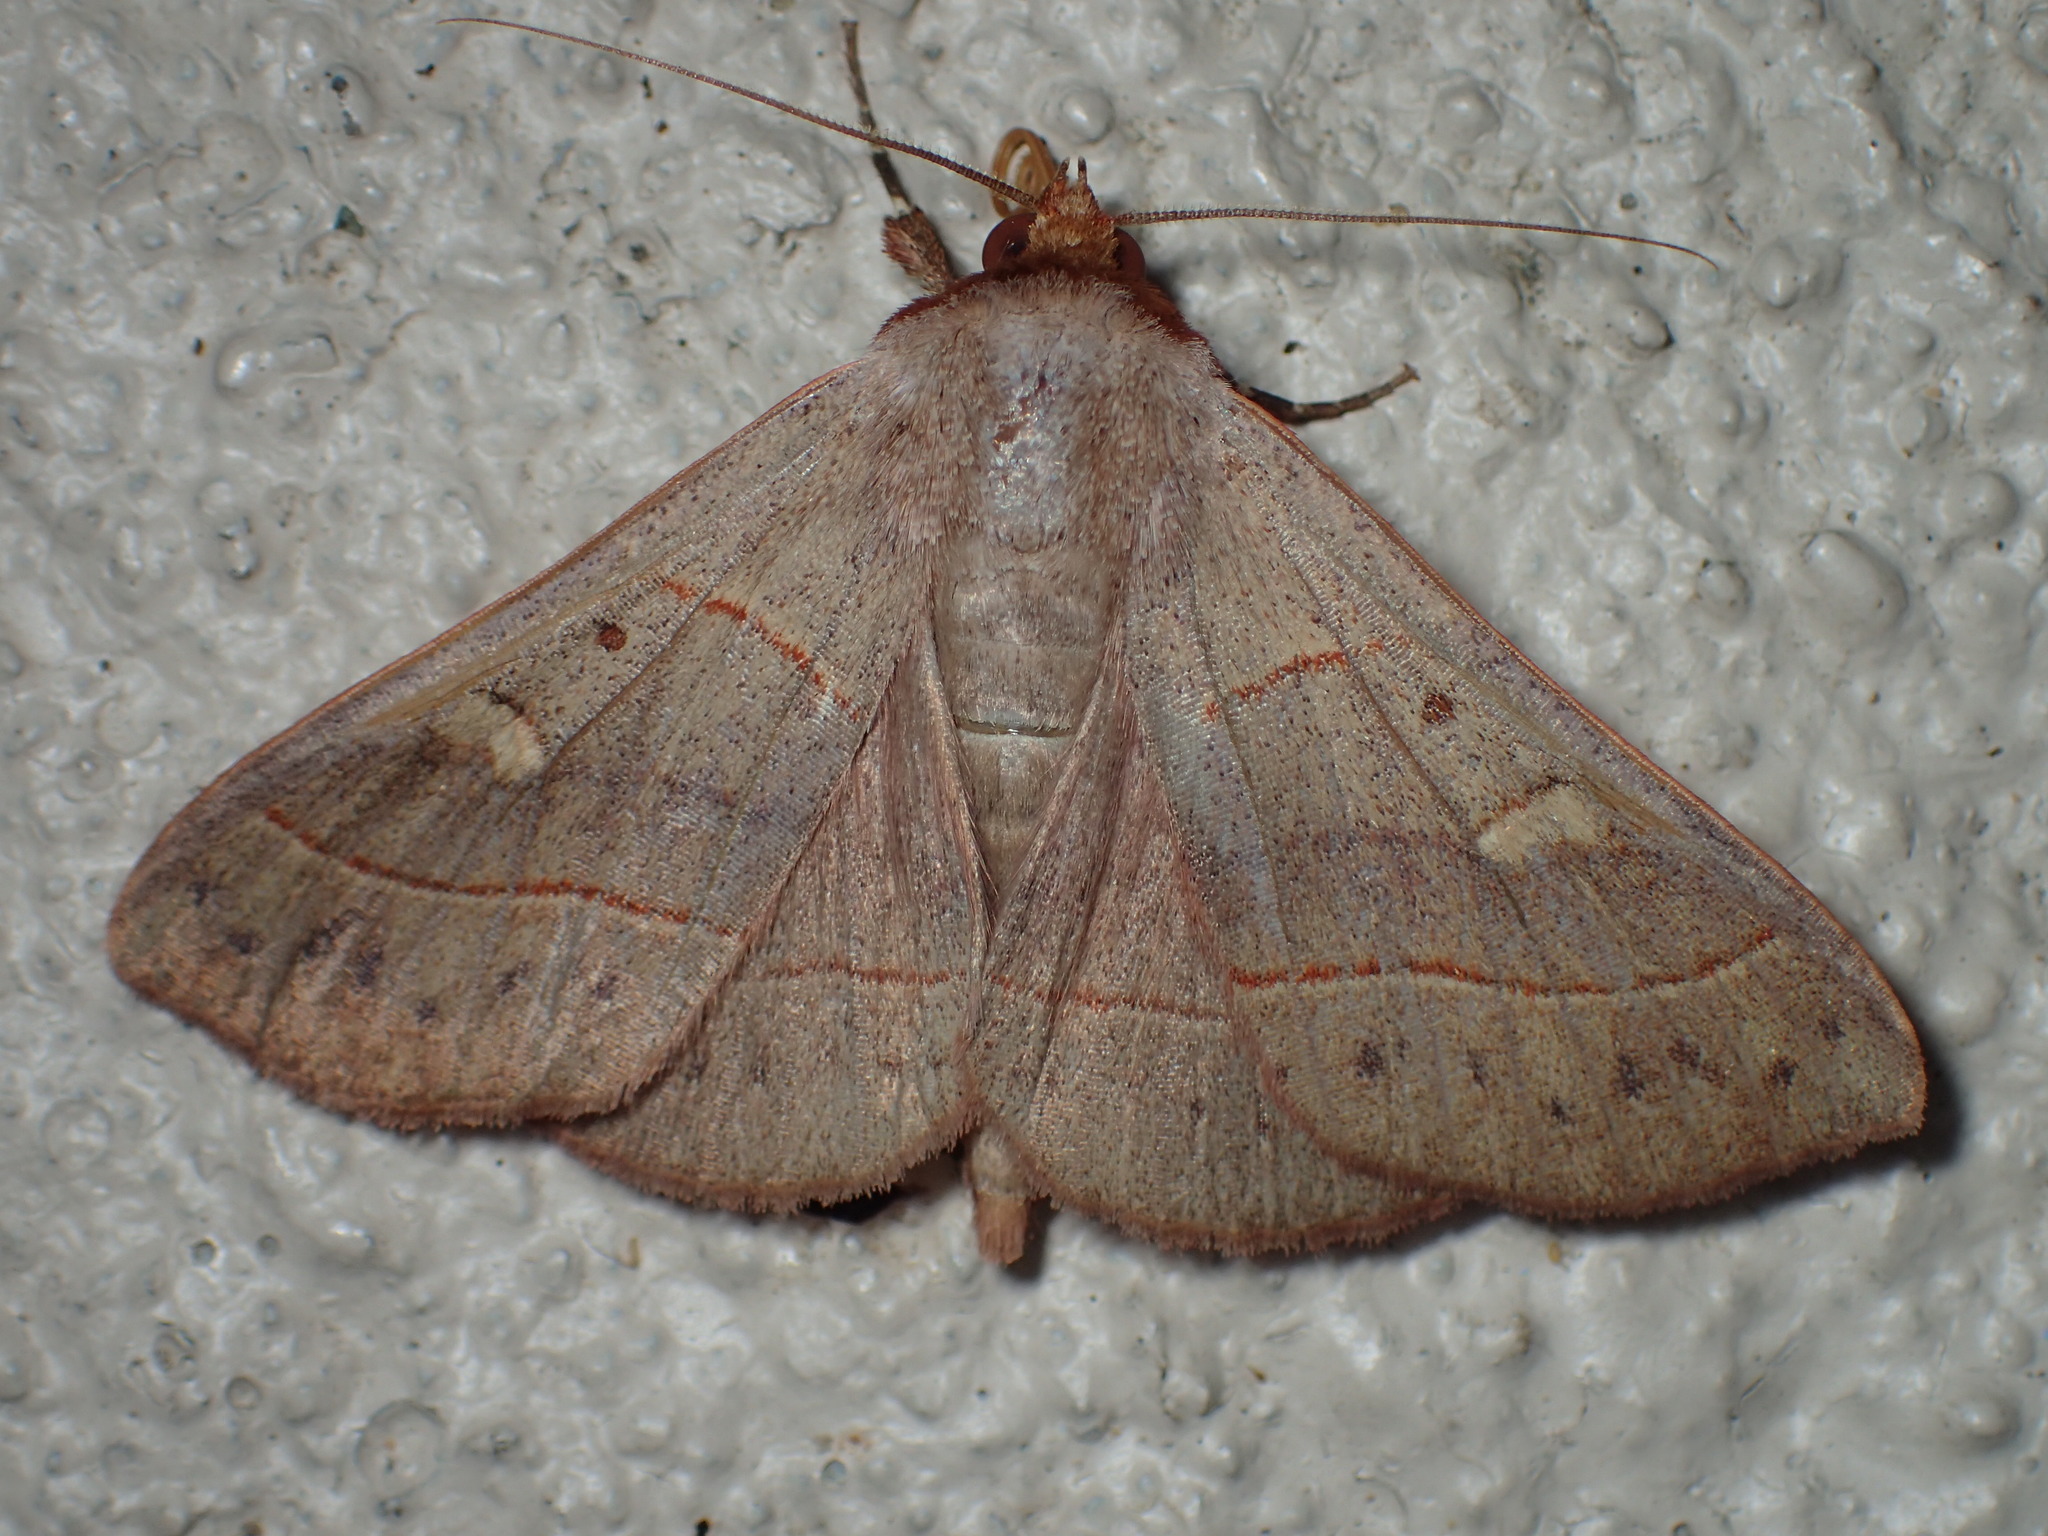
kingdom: Animalia
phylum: Arthropoda
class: Insecta
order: Lepidoptera
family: Erebidae
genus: Panopoda
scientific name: Panopoda rufimargo
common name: Red-lined panopoda moth
